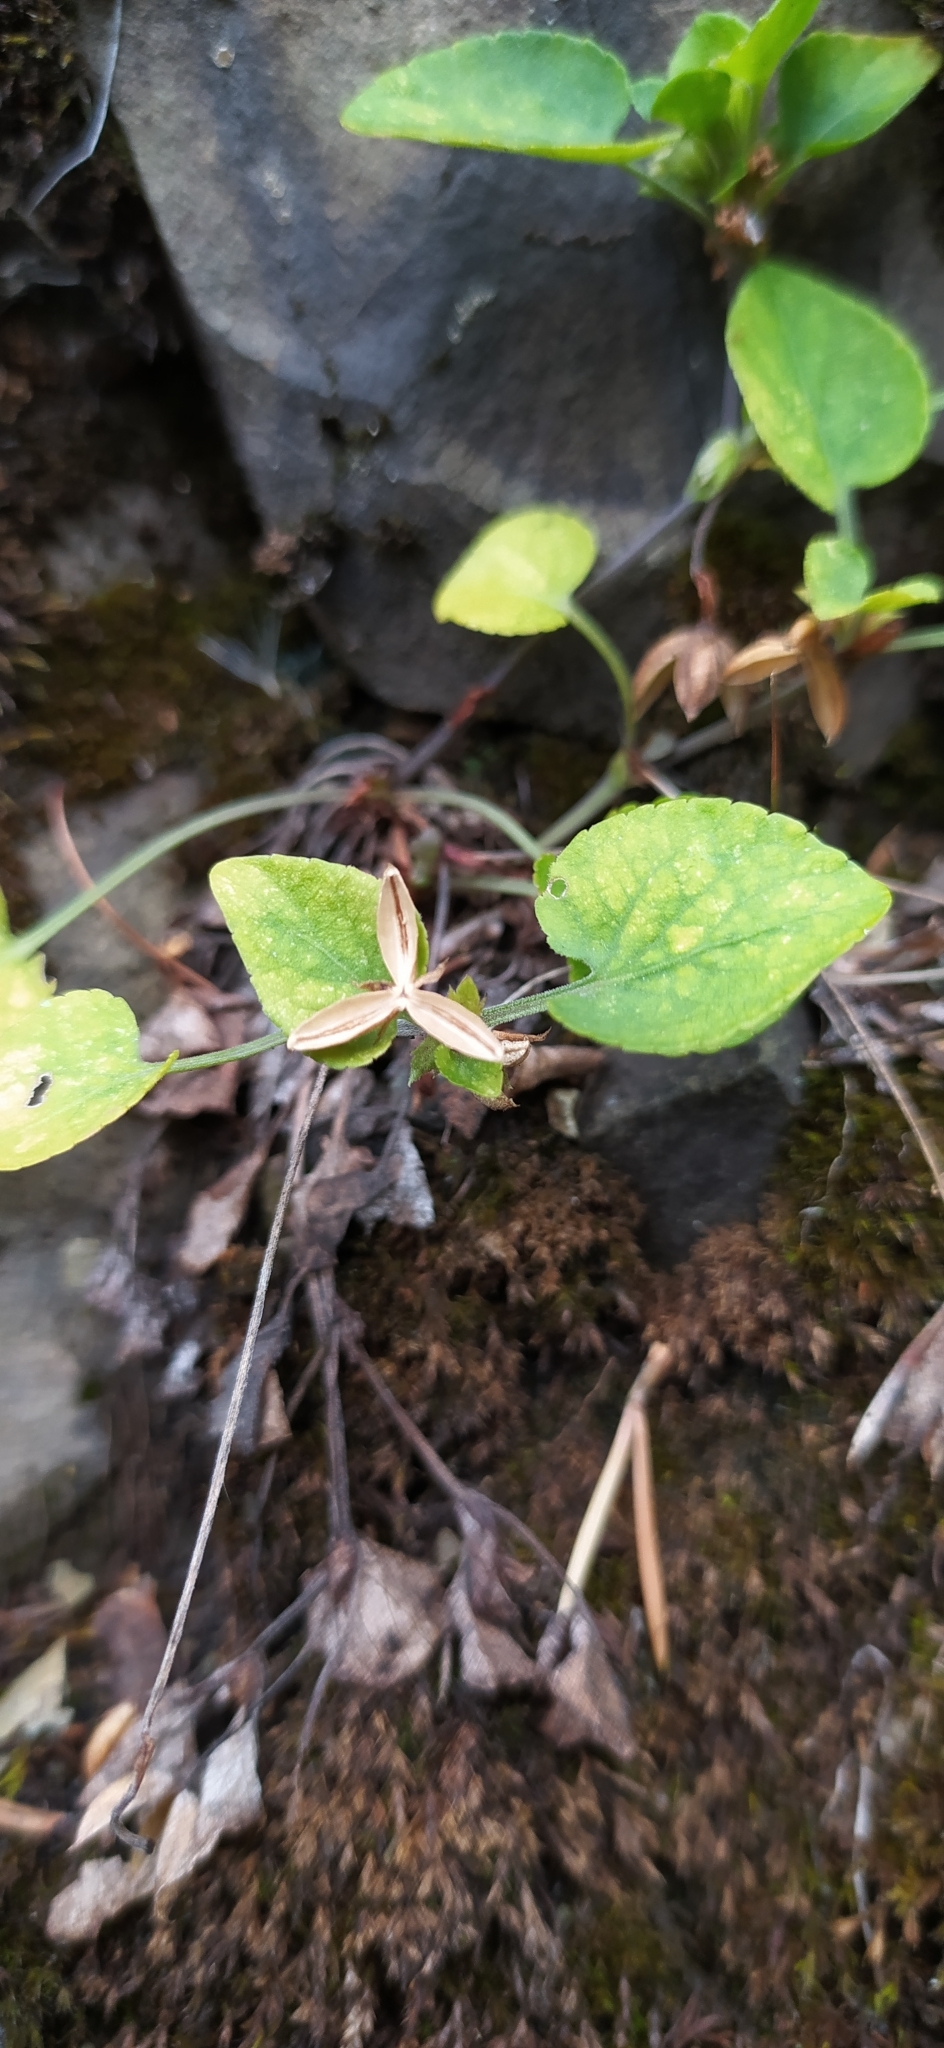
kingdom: Plantae
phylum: Tracheophyta
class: Magnoliopsida
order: Malpighiales
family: Violaceae
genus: Viola
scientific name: Viola rupestris
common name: Teesdale violet
